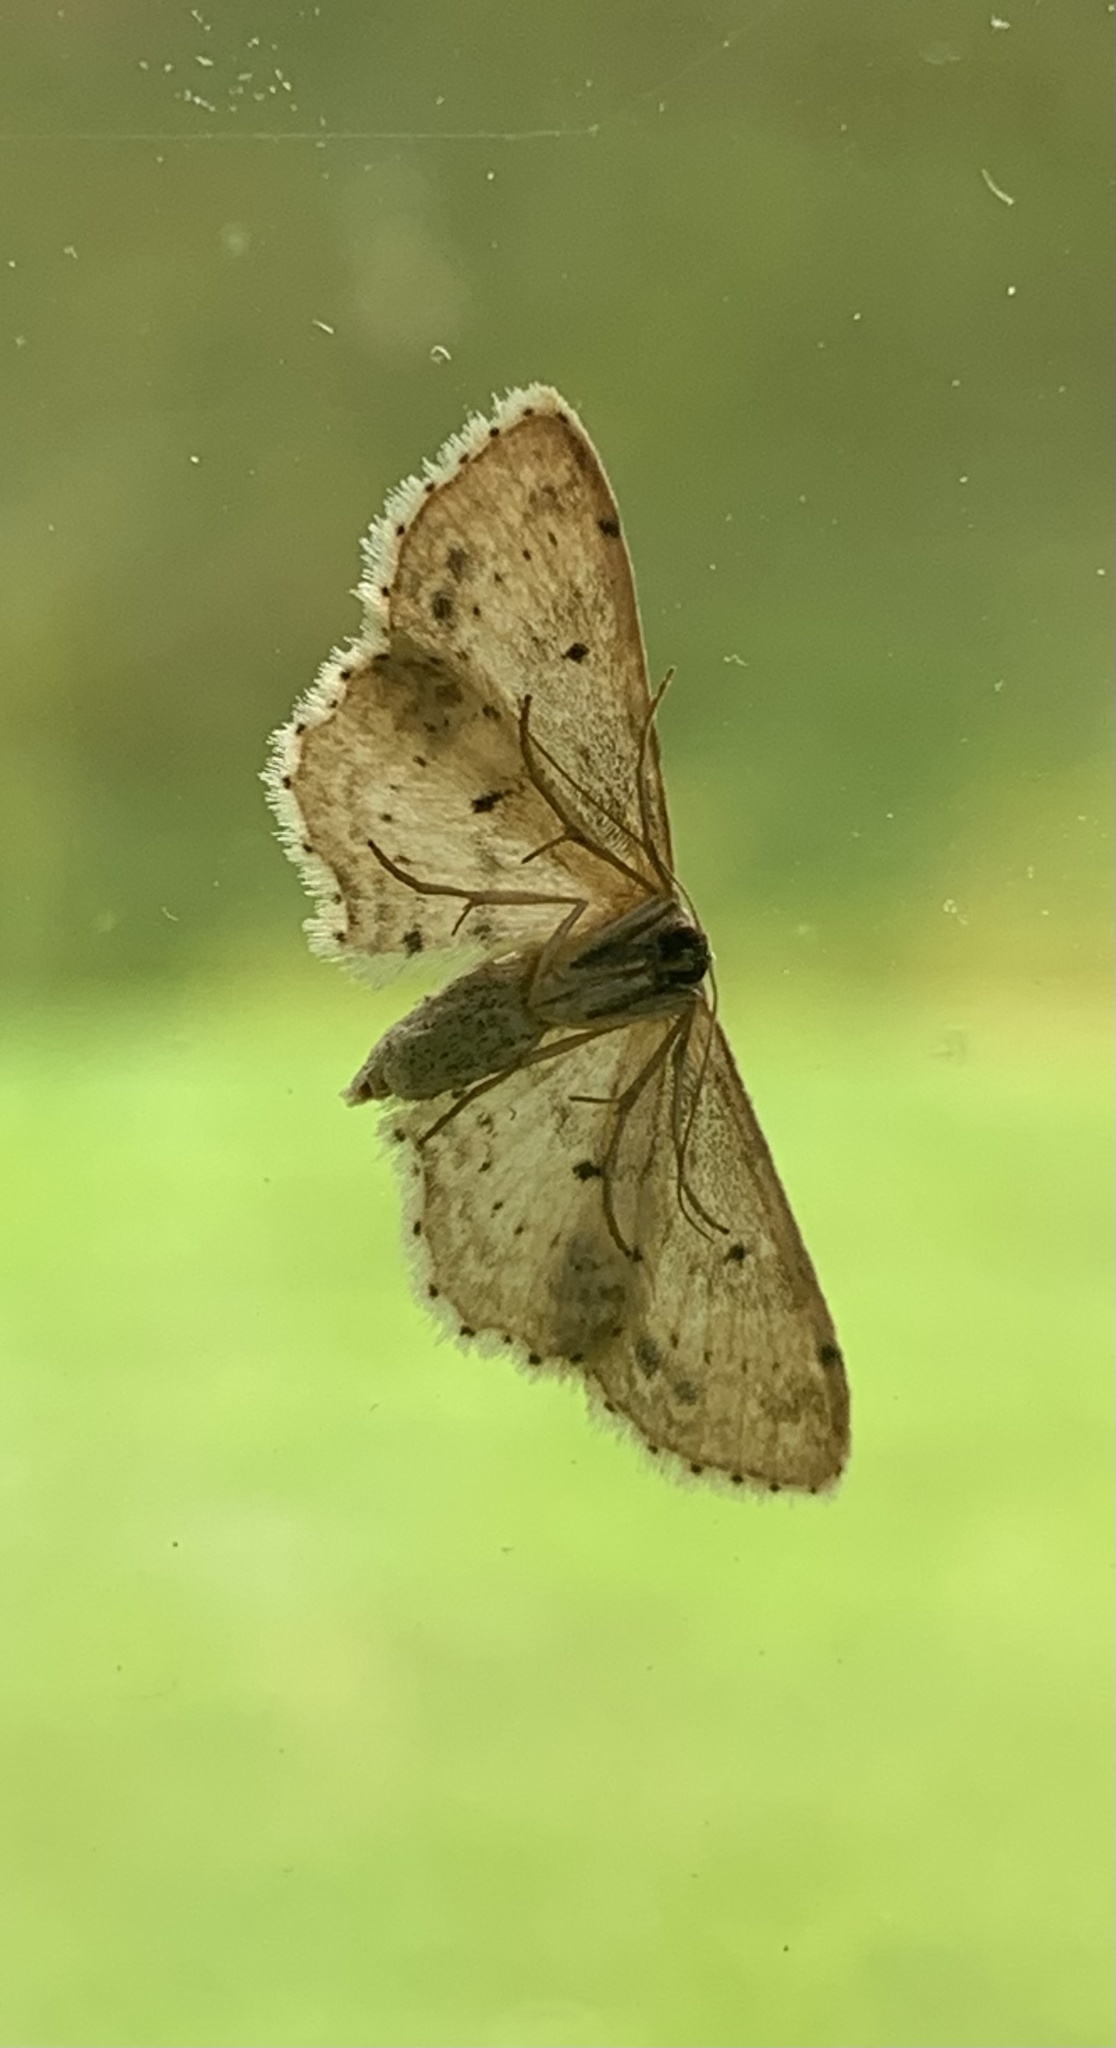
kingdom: Animalia
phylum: Arthropoda
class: Insecta
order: Lepidoptera
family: Geometridae
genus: Idaea
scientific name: Idaea dimidiata
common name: Single-dotted wave
